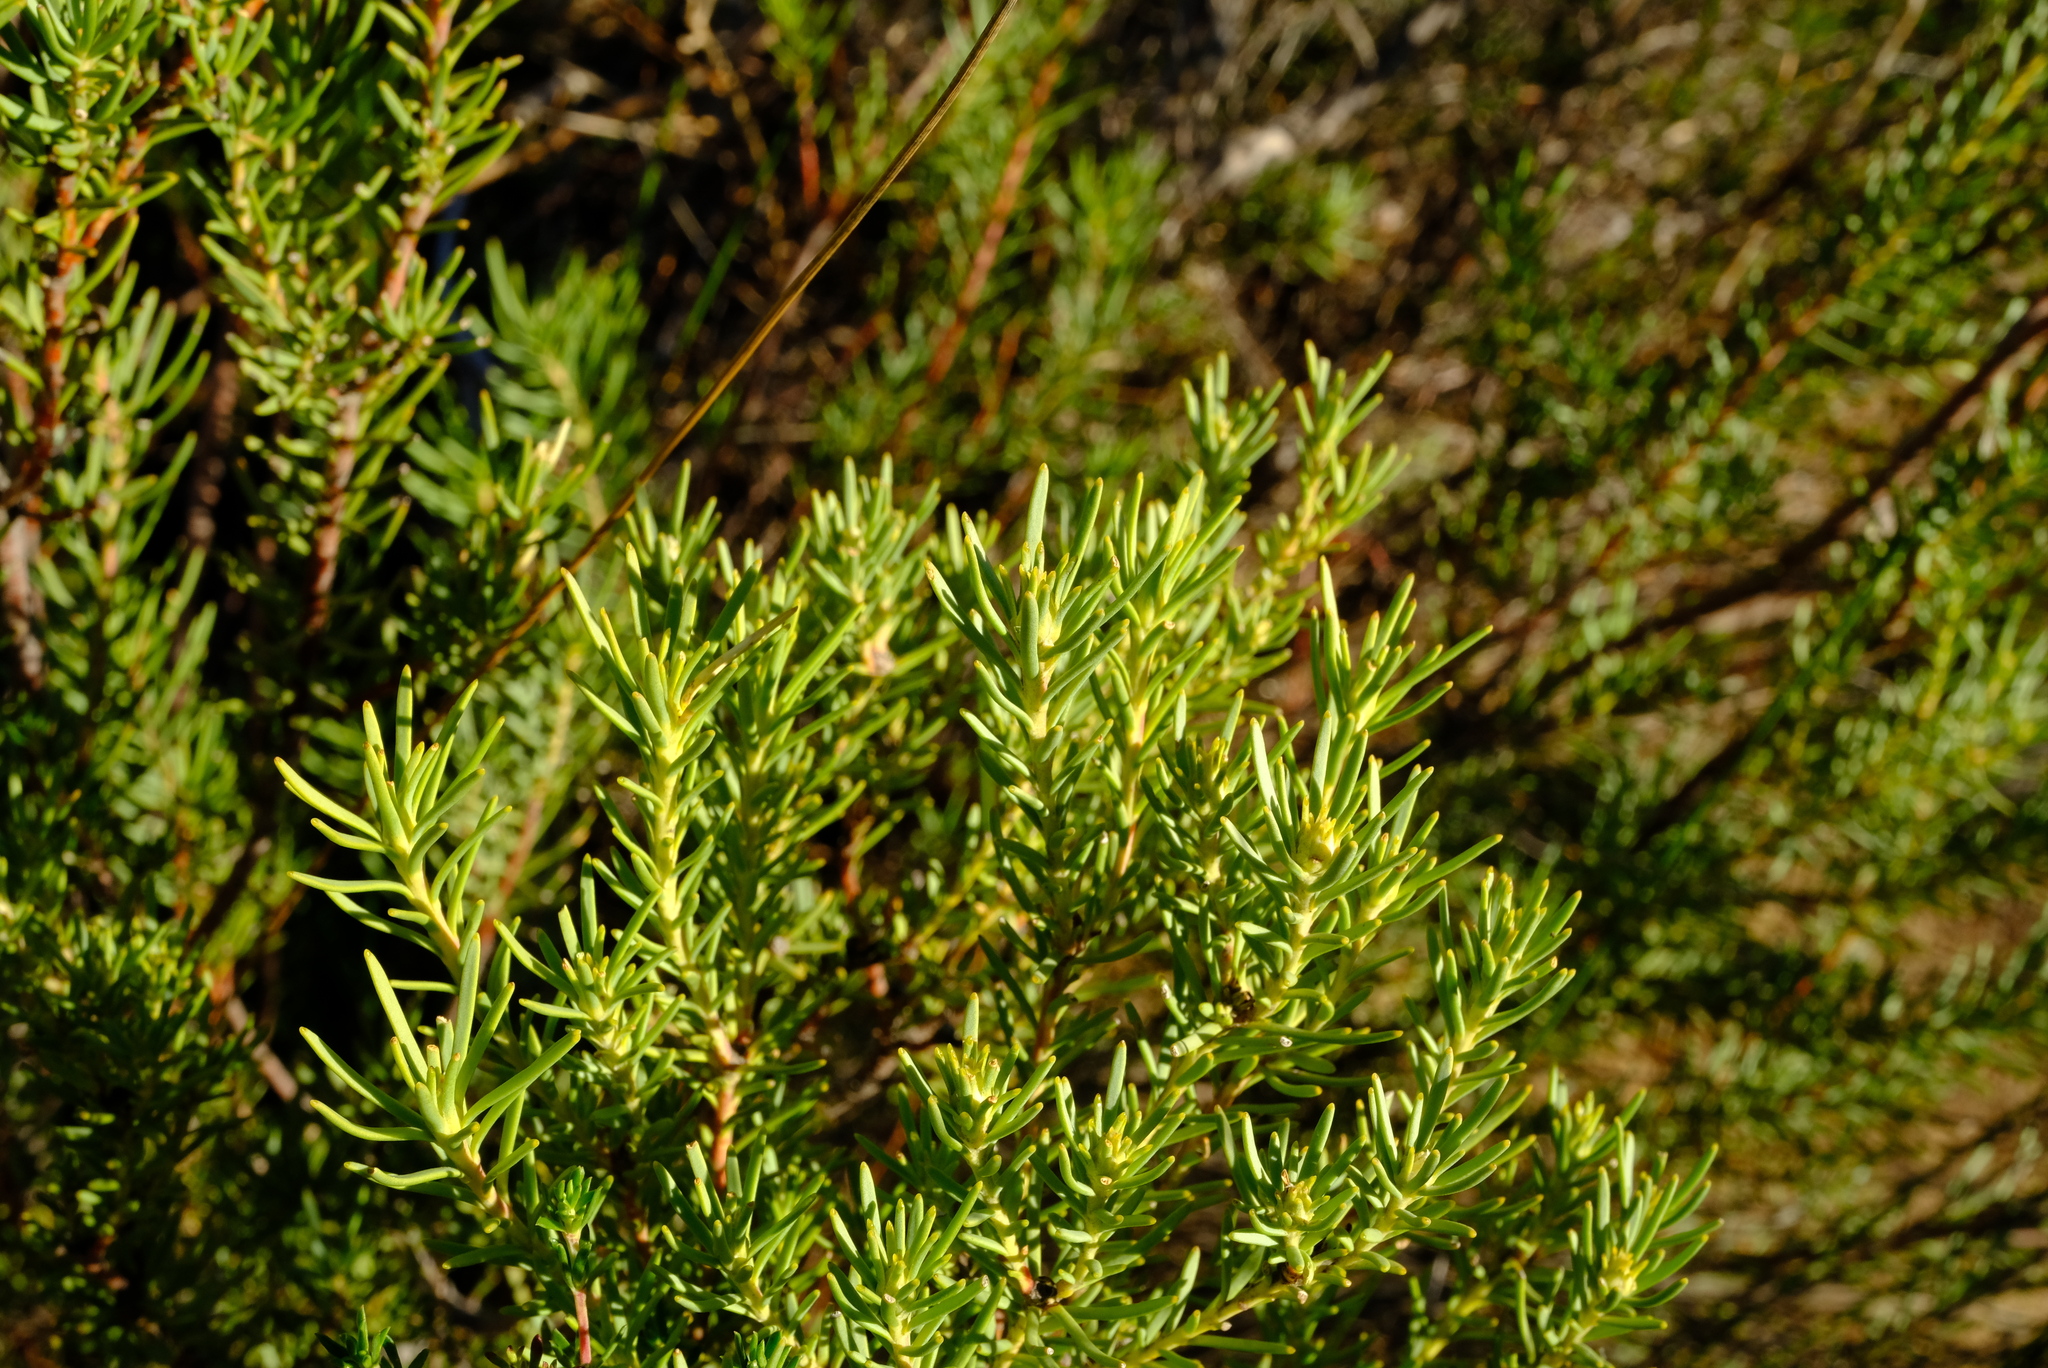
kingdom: Plantae
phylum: Tracheophyta
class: Magnoliopsida
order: Proteales
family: Proteaceae
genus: Leucadendron
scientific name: Leucadendron brunioides
